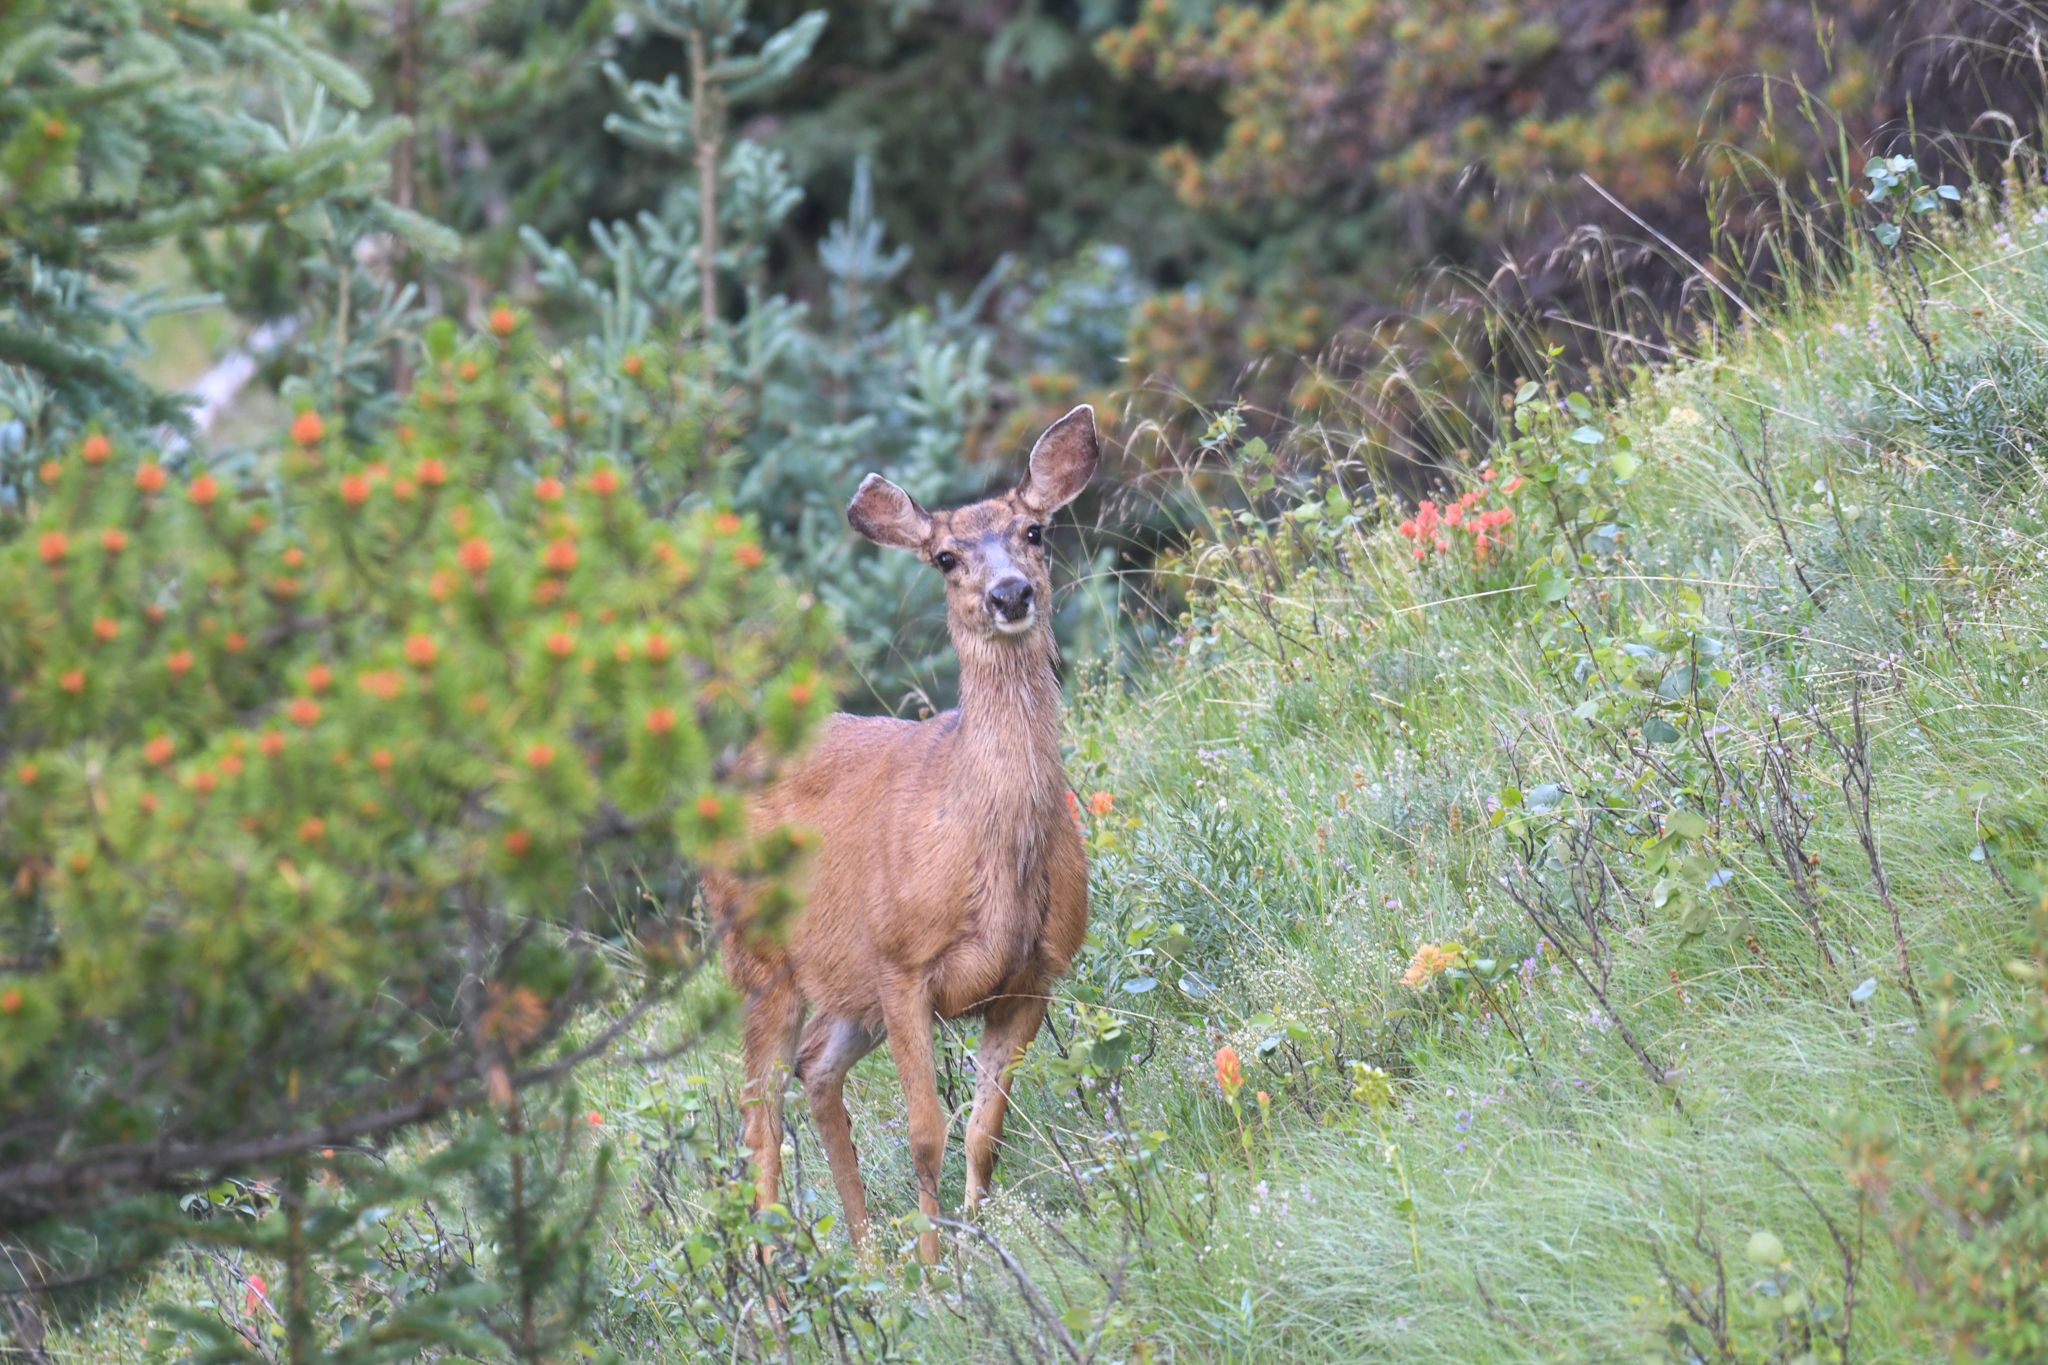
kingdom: Animalia
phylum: Chordata
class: Mammalia
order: Artiodactyla
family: Cervidae
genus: Odocoileus
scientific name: Odocoileus hemionus
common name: Mule deer
